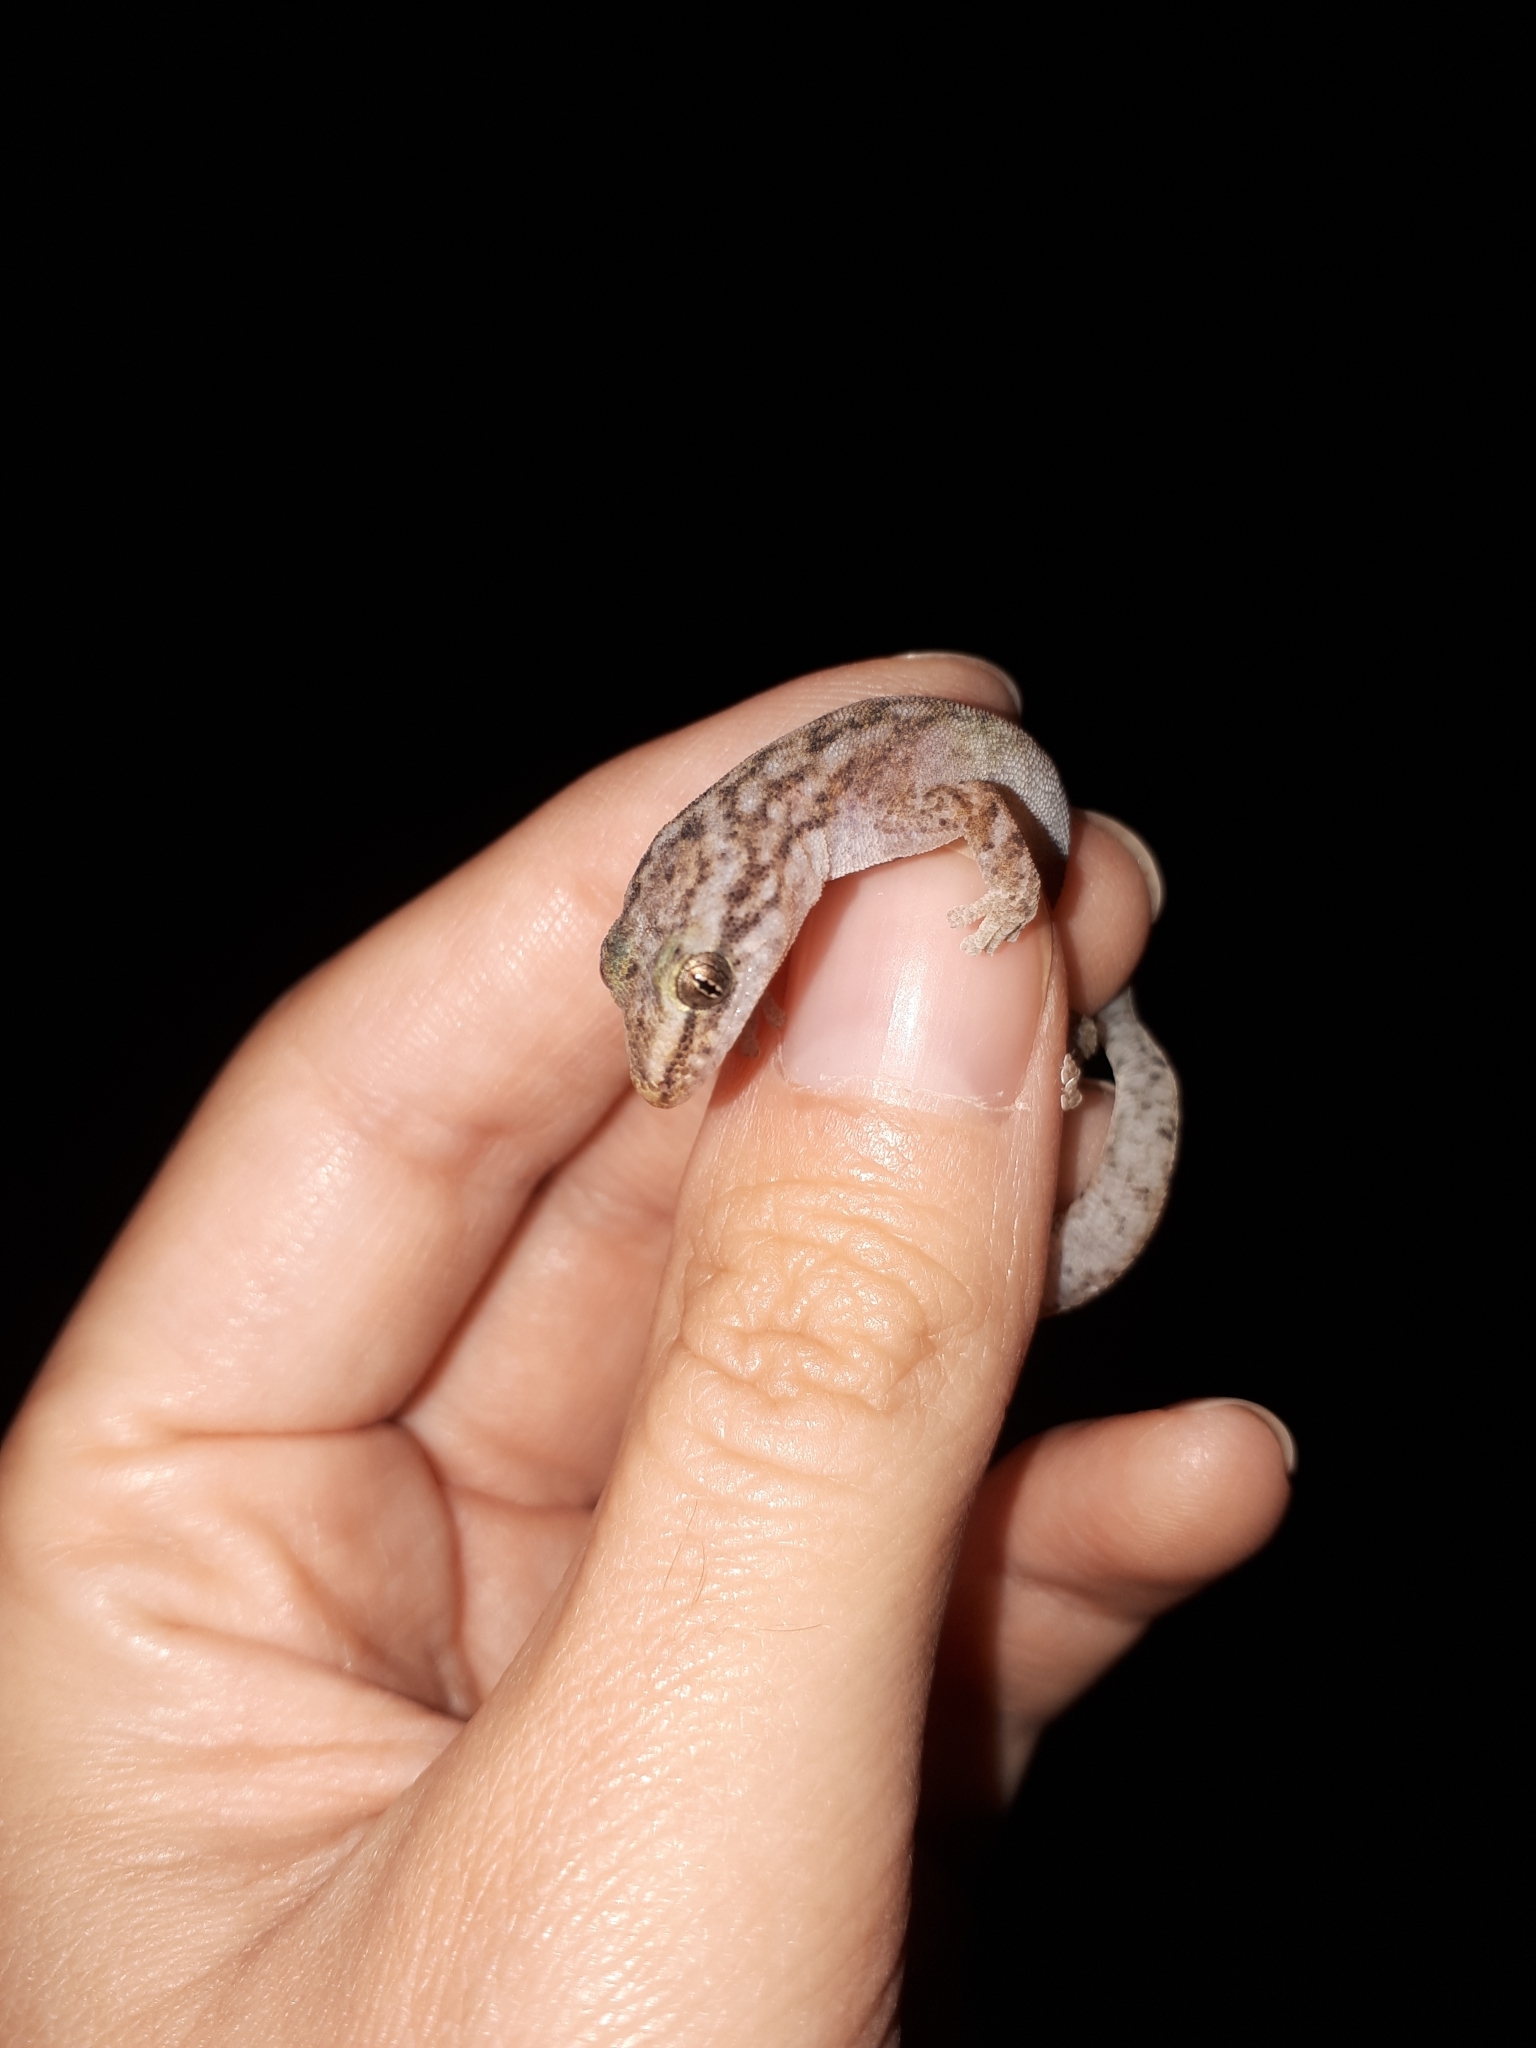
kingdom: Animalia
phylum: Chordata
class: Squamata
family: Gekkonidae
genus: Afrogecko
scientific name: Afrogecko porphyreus
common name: Marbled leaf-toed gecko
